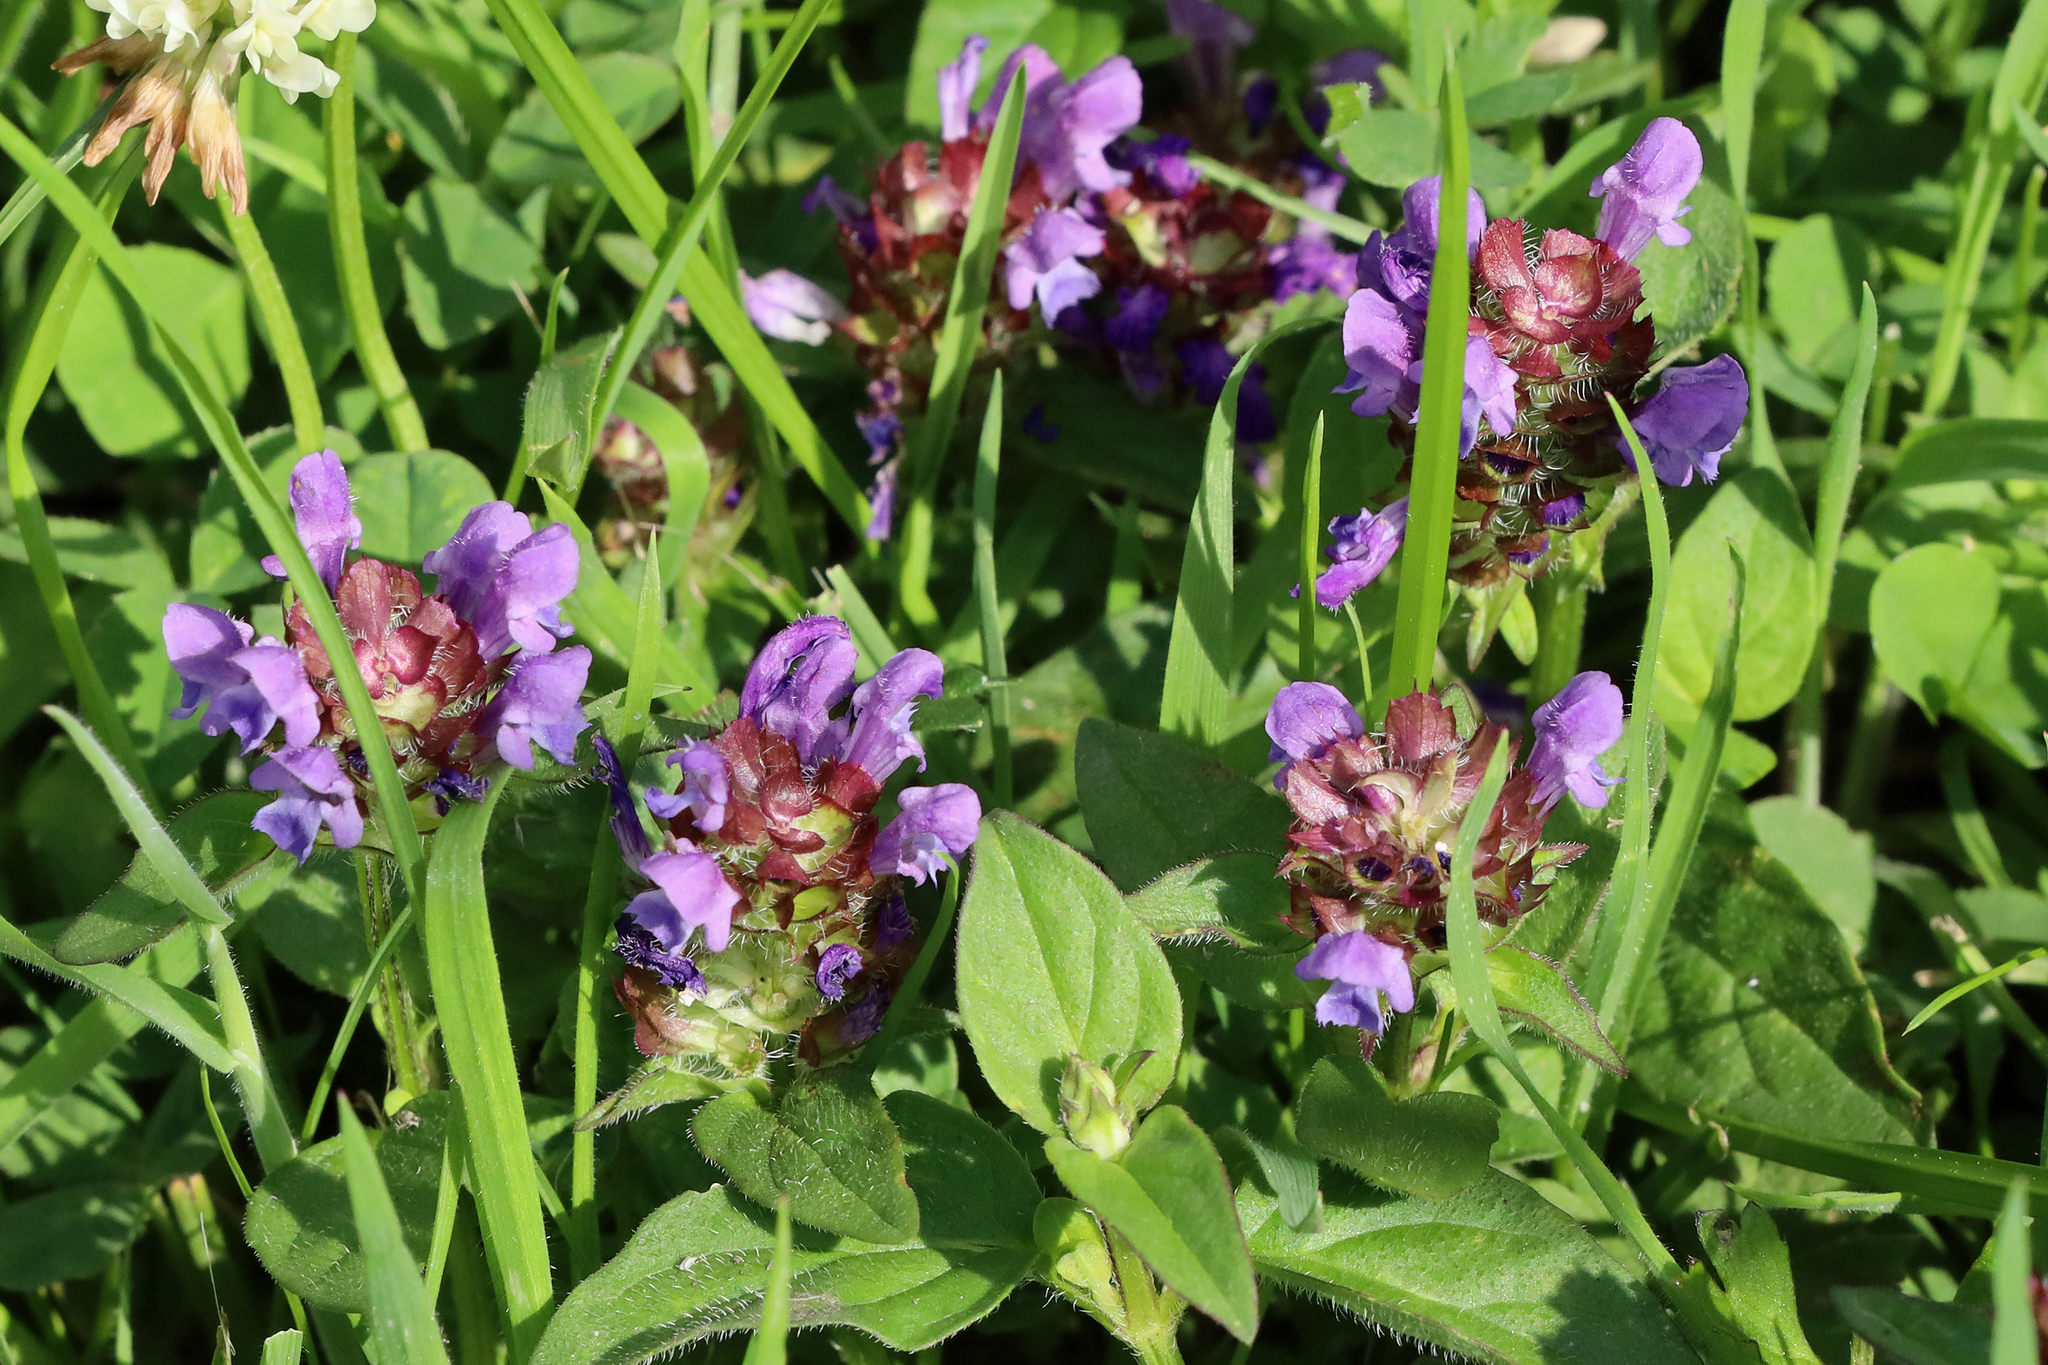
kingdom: Plantae
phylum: Tracheophyta
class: Magnoliopsida
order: Lamiales
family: Lamiaceae
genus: Prunella
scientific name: Prunella vulgaris
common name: Heal-all
